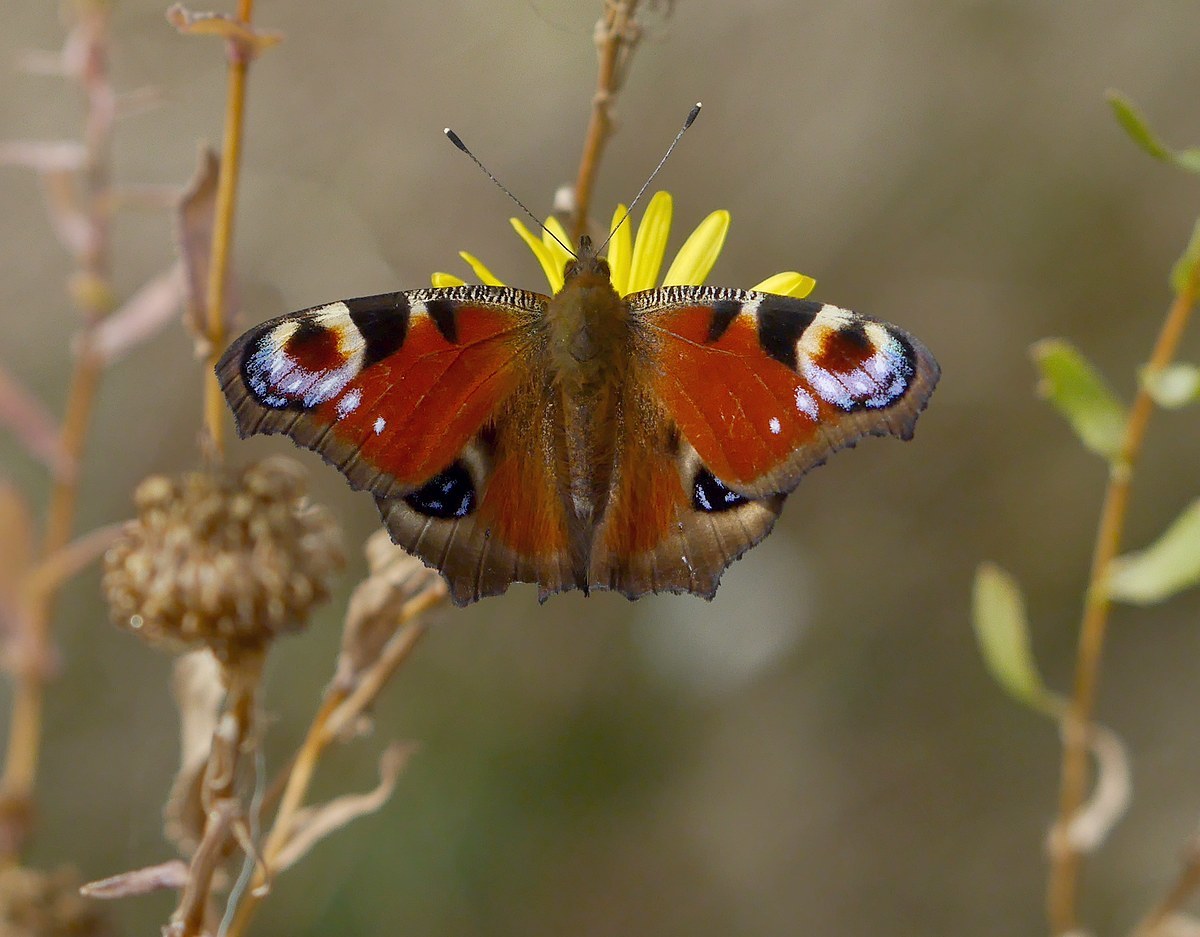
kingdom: Animalia
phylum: Arthropoda
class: Insecta
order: Lepidoptera
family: Nymphalidae
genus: Aglais
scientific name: Aglais io
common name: Peacock
